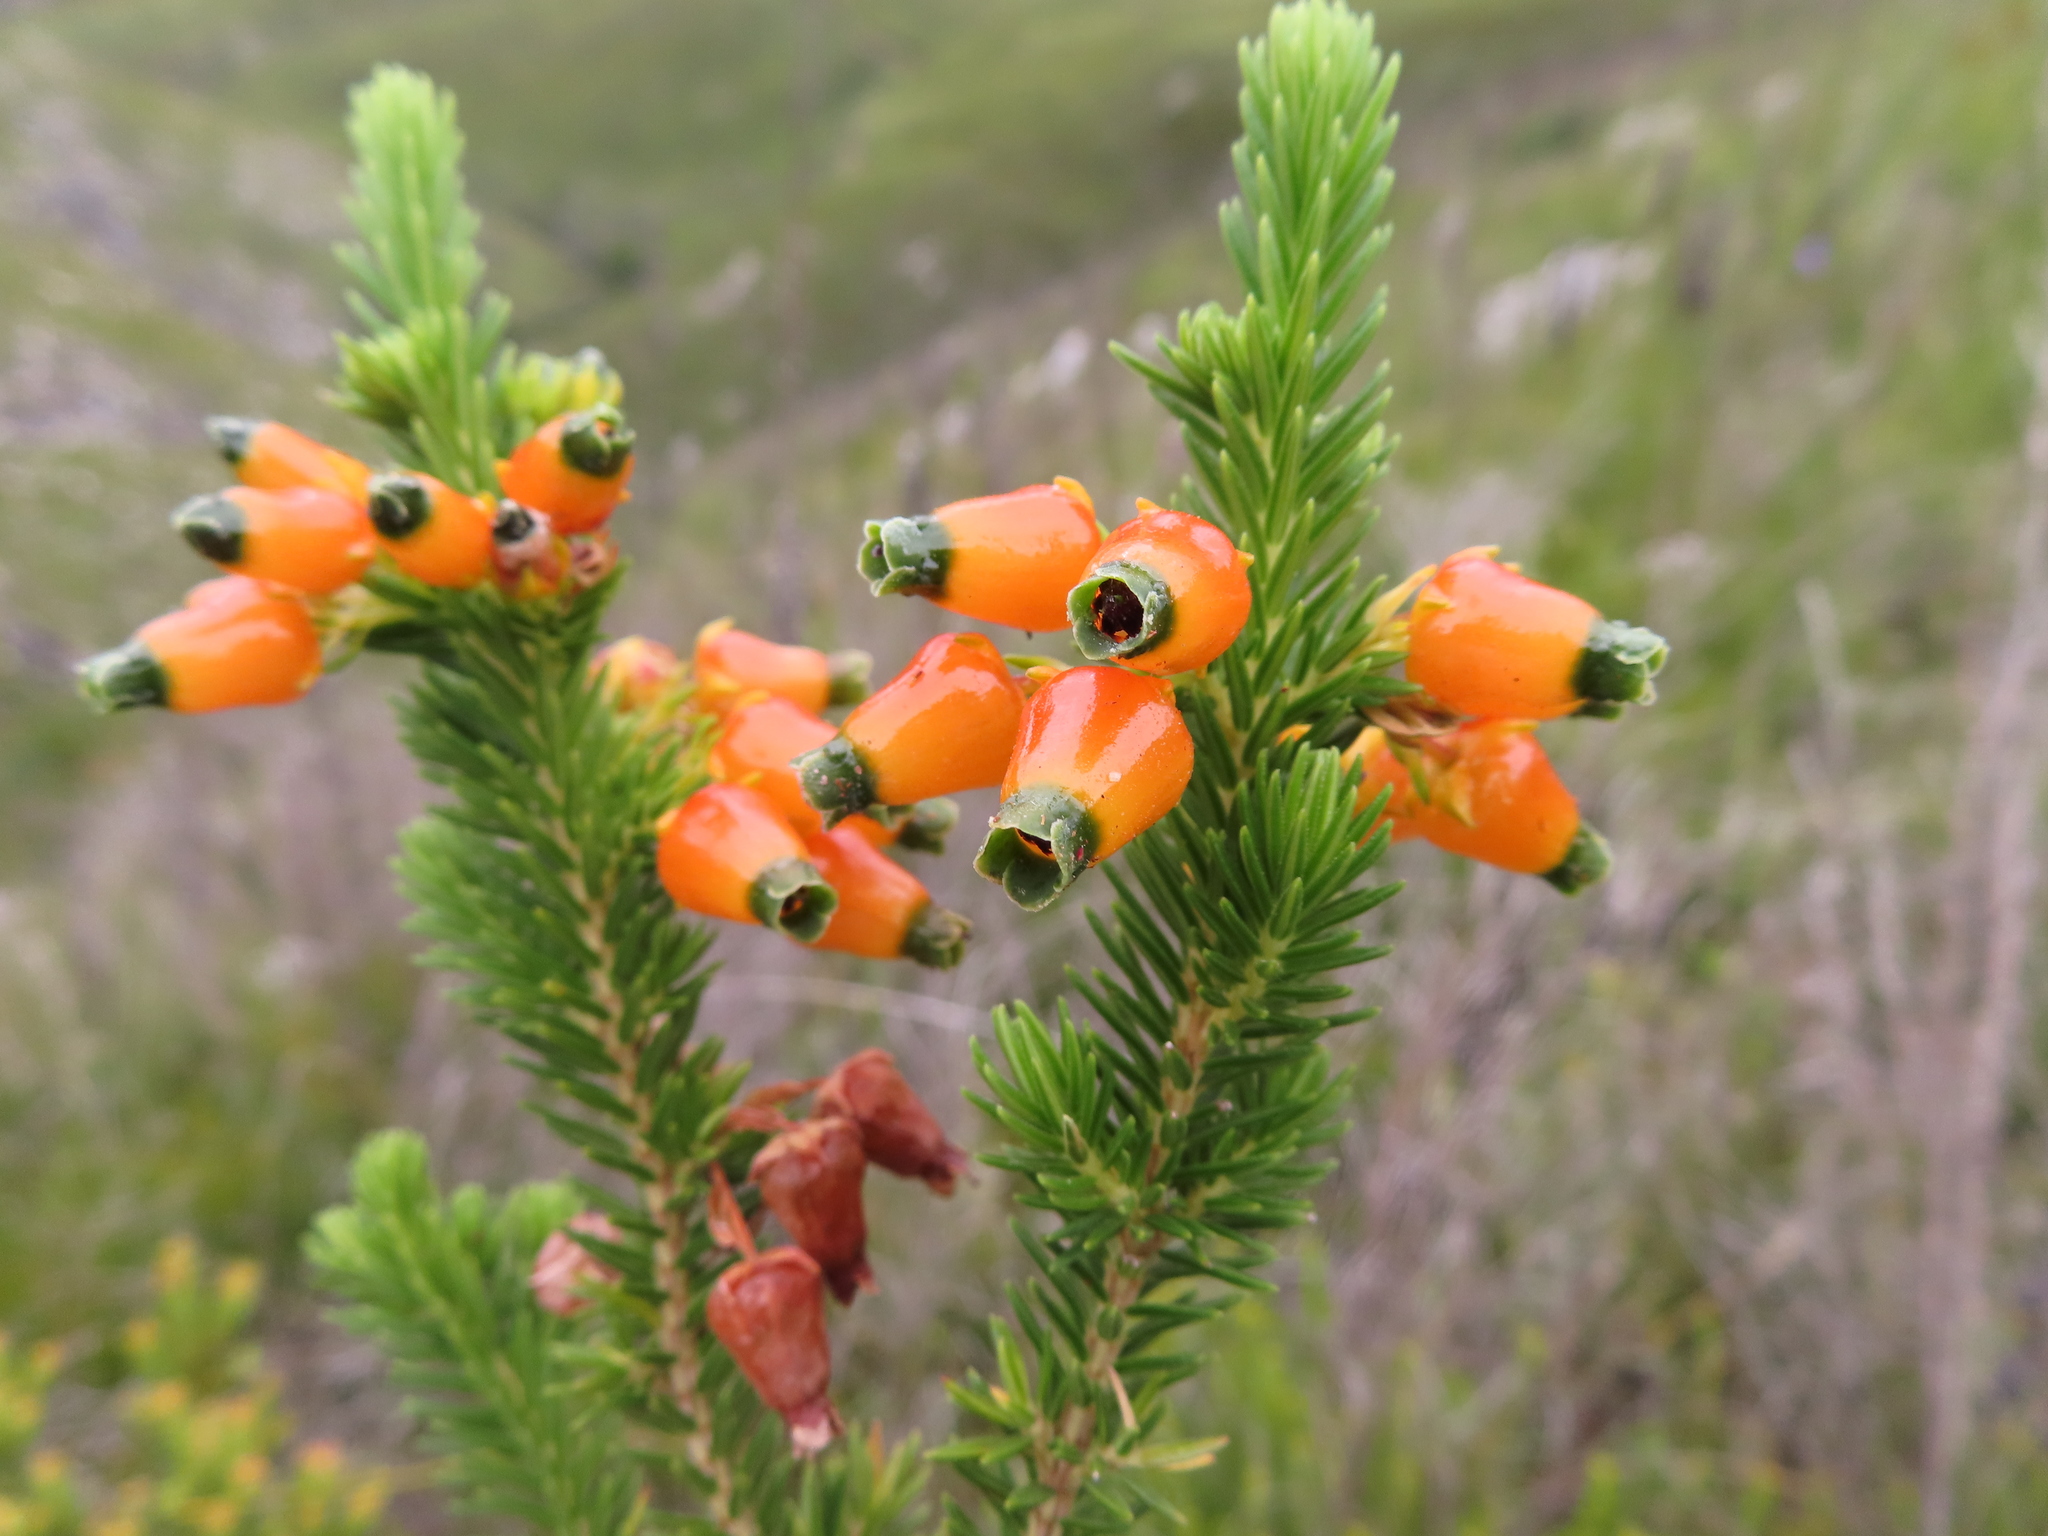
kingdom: Plantae
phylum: Tracheophyta
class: Magnoliopsida
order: Ericales
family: Ericaceae
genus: Erica
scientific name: Erica blenna
